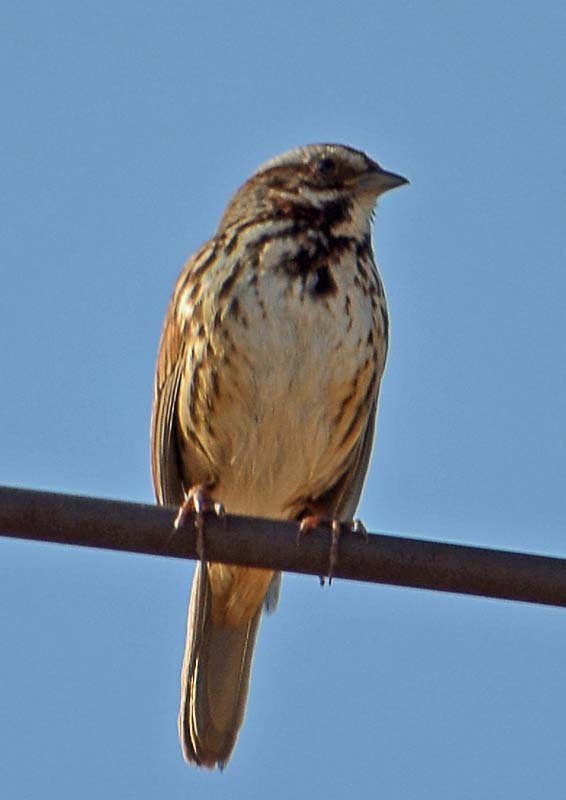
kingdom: Animalia
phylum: Chordata
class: Aves
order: Passeriformes
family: Passerellidae
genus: Melospiza
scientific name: Melospiza melodia
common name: Song sparrow
